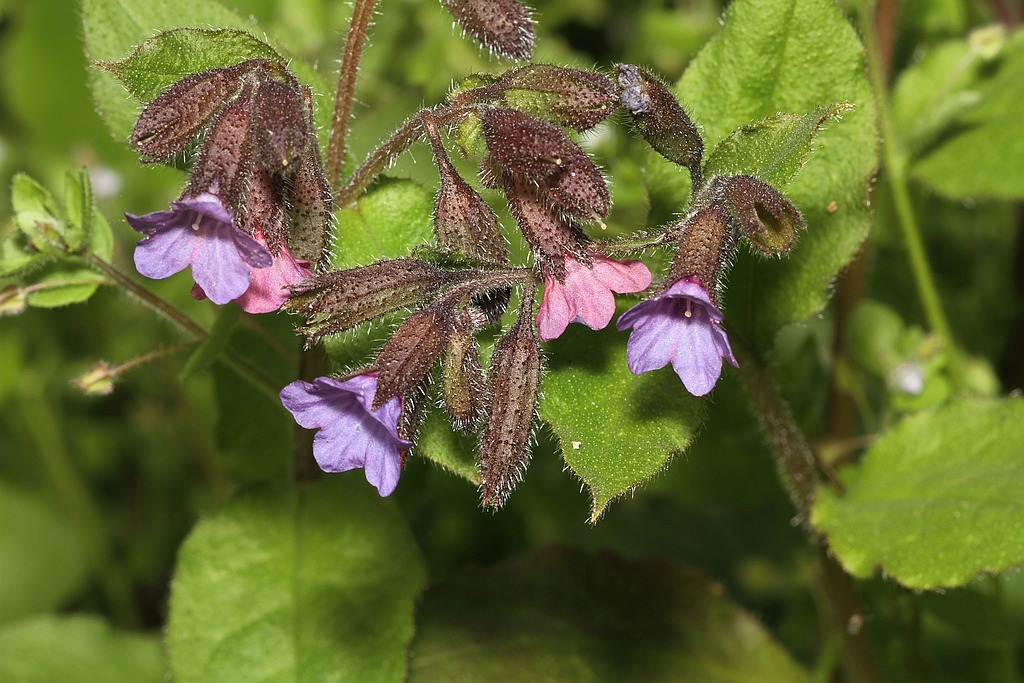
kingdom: Plantae
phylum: Tracheophyta
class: Magnoliopsida
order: Boraginales
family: Boraginaceae
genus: Pulmonaria
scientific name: Pulmonaria obscura
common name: Suffolk lungwort
